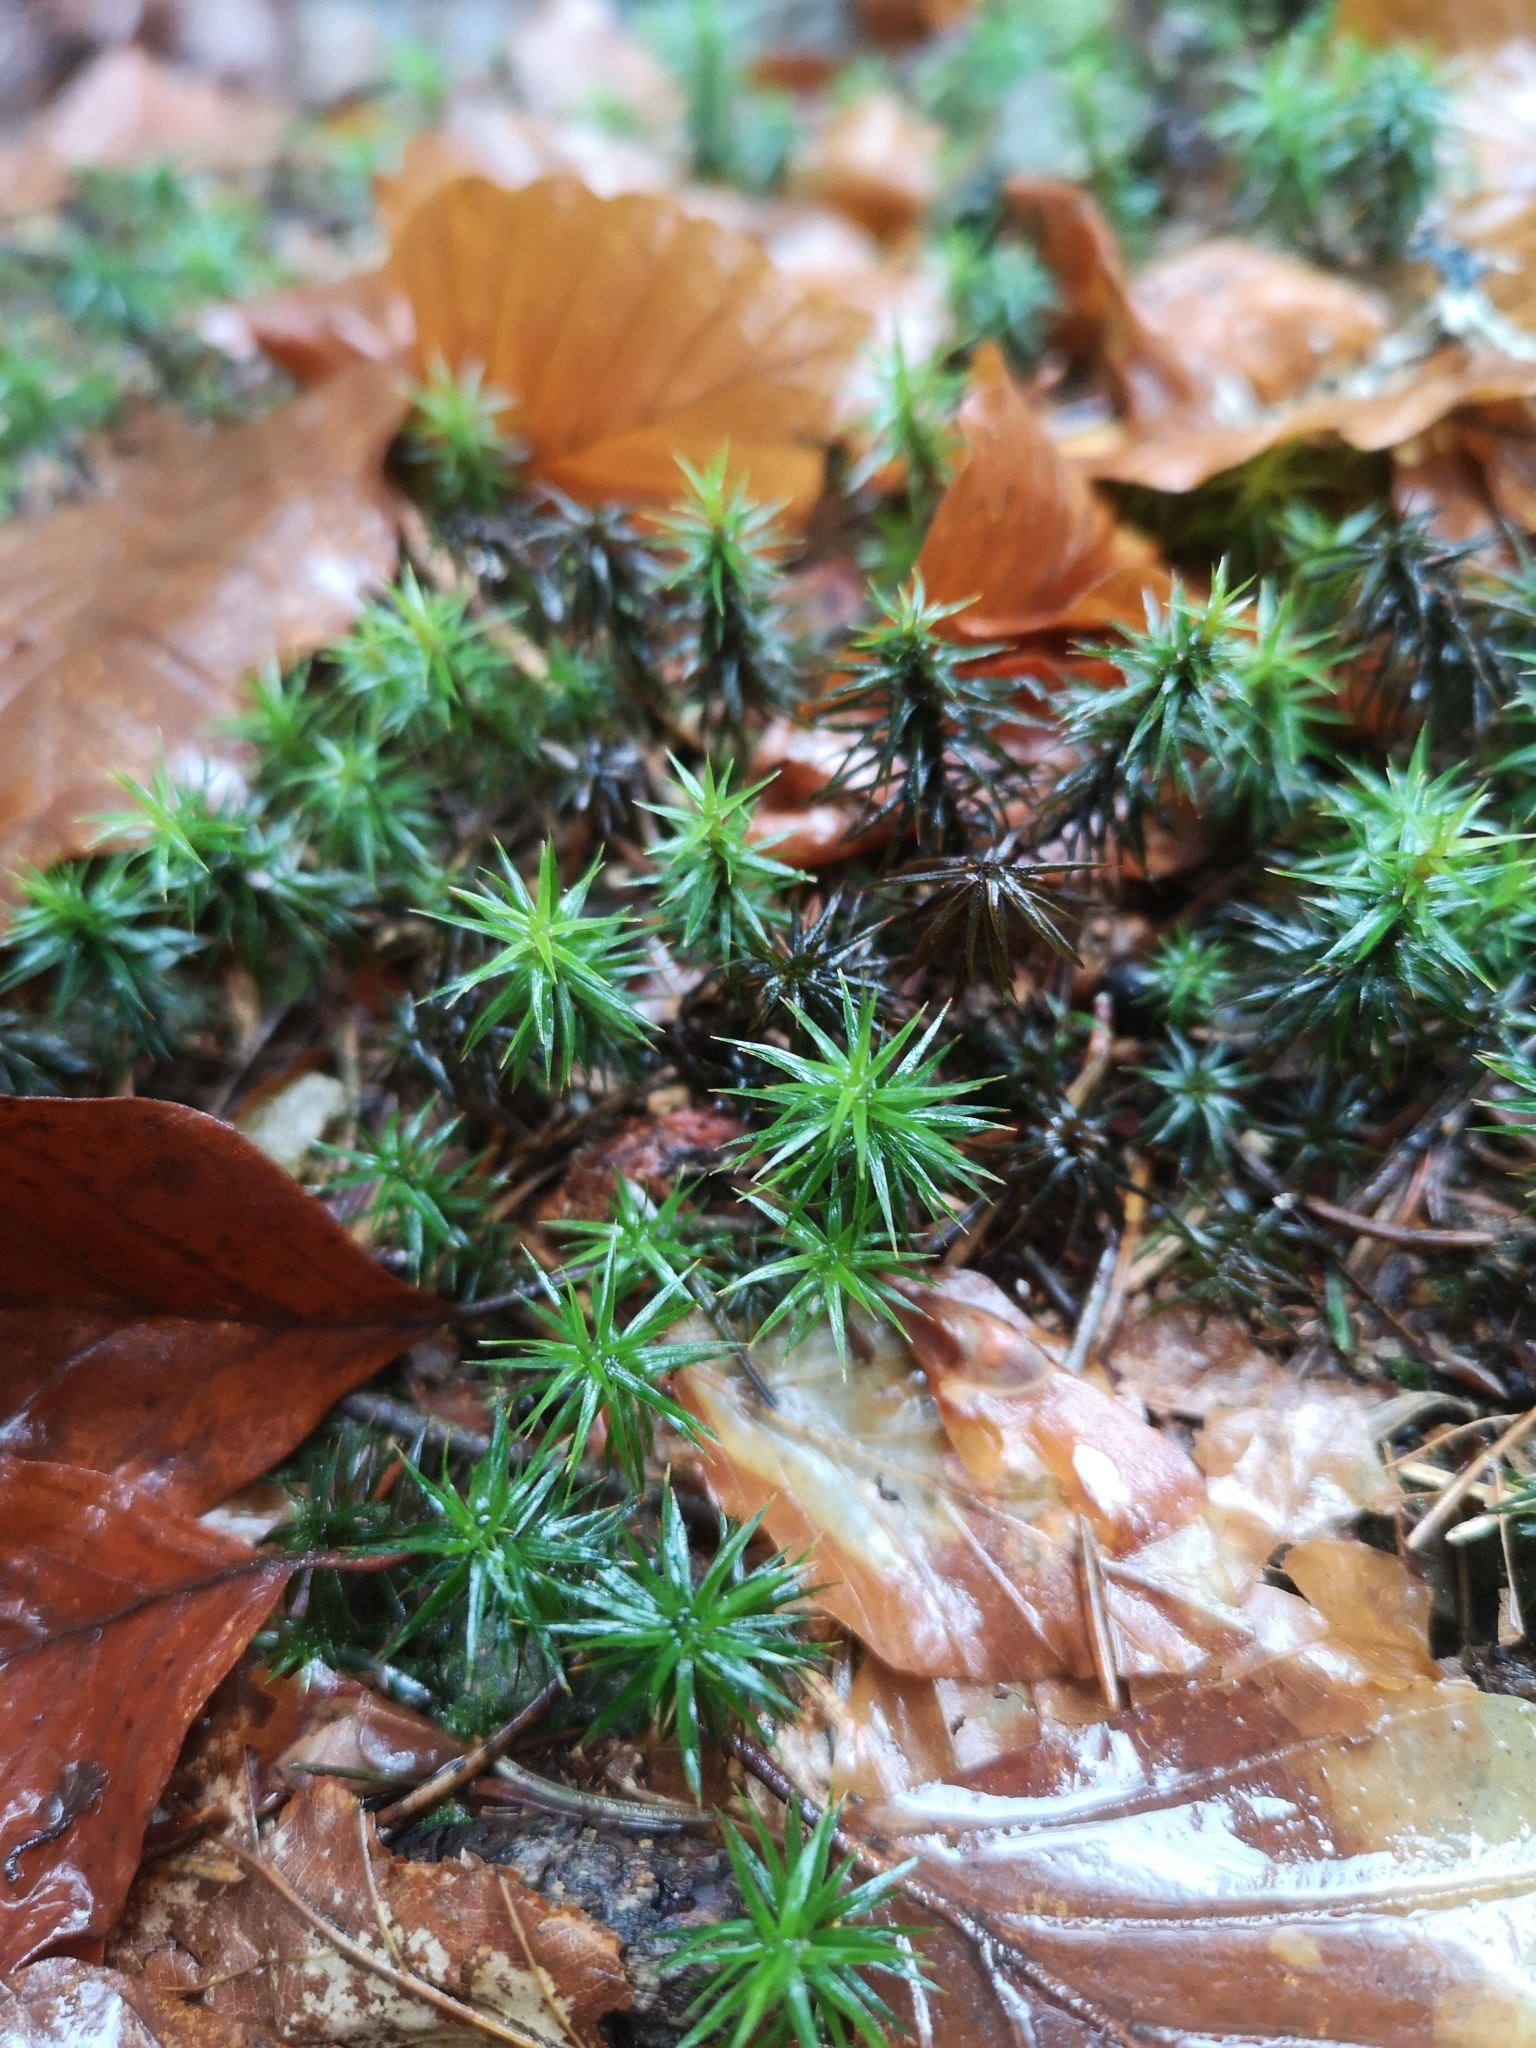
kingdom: Plantae
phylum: Bryophyta
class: Polytrichopsida
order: Polytrichales
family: Polytrichaceae
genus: Polytrichum
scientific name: Polytrichum formosum
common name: Bank haircap moss
